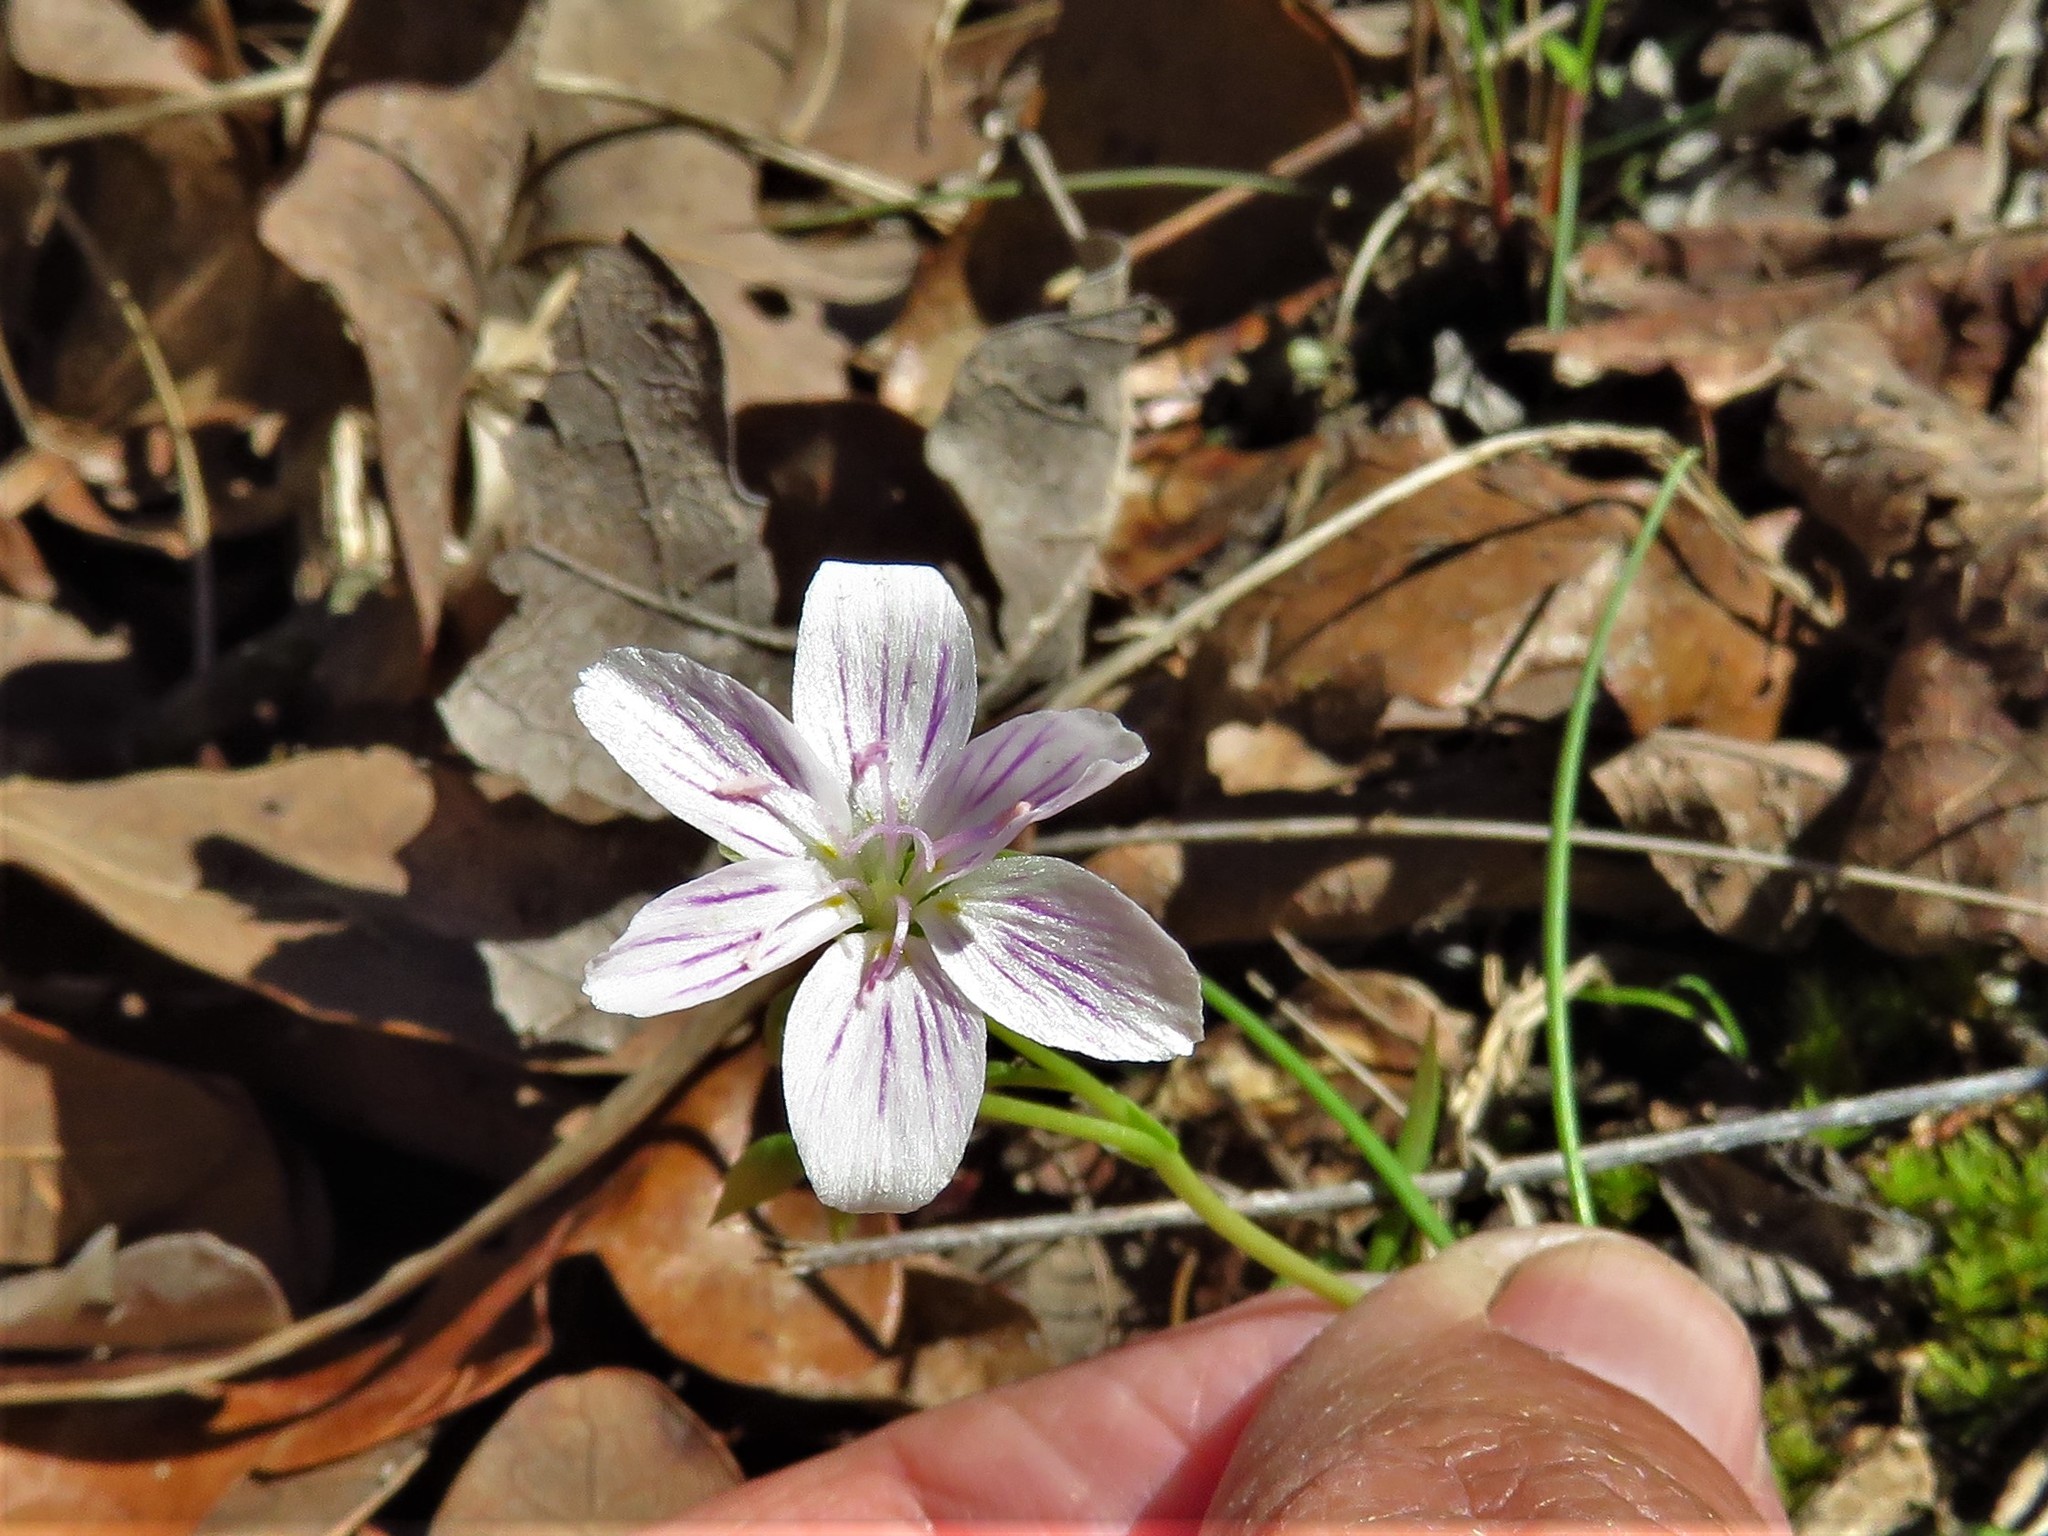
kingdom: Plantae
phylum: Tracheophyta
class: Magnoliopsida
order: Caryophyllales
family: Montiaceae
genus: Claytonia
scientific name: Claytonia virginica
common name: Virginia springbeauty
